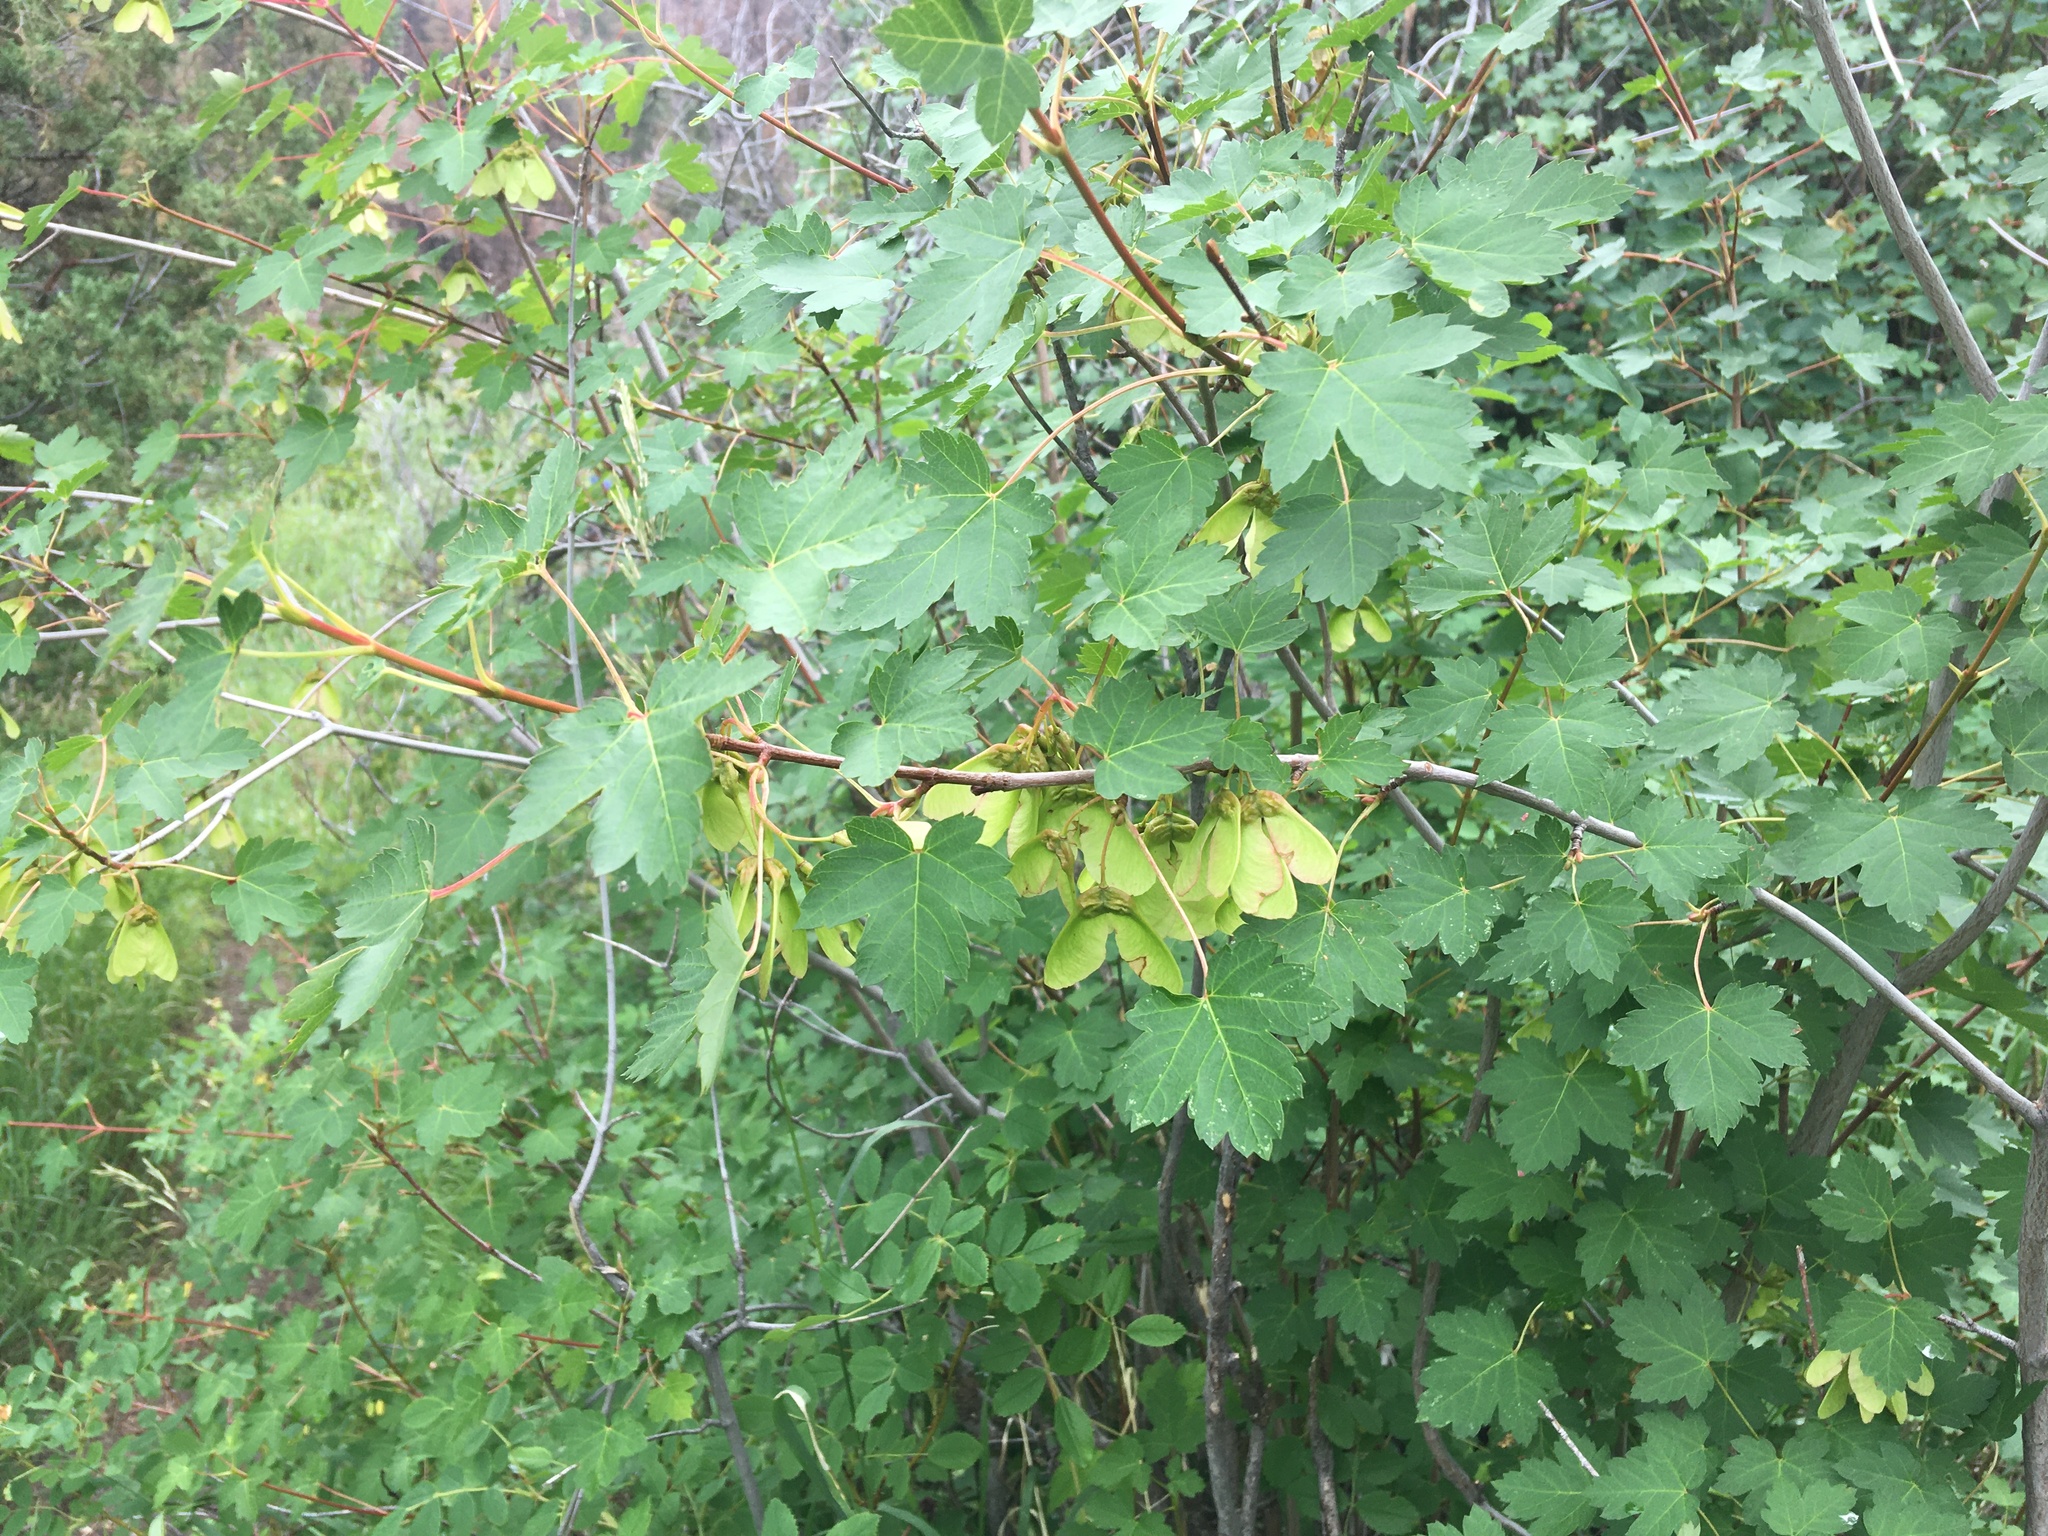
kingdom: Plantae
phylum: Tracheophyta
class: Magnoliopsida
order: Sapindales
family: Sapindaceae
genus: Acer
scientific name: Acer glabrum
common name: Rocky mountain maple
